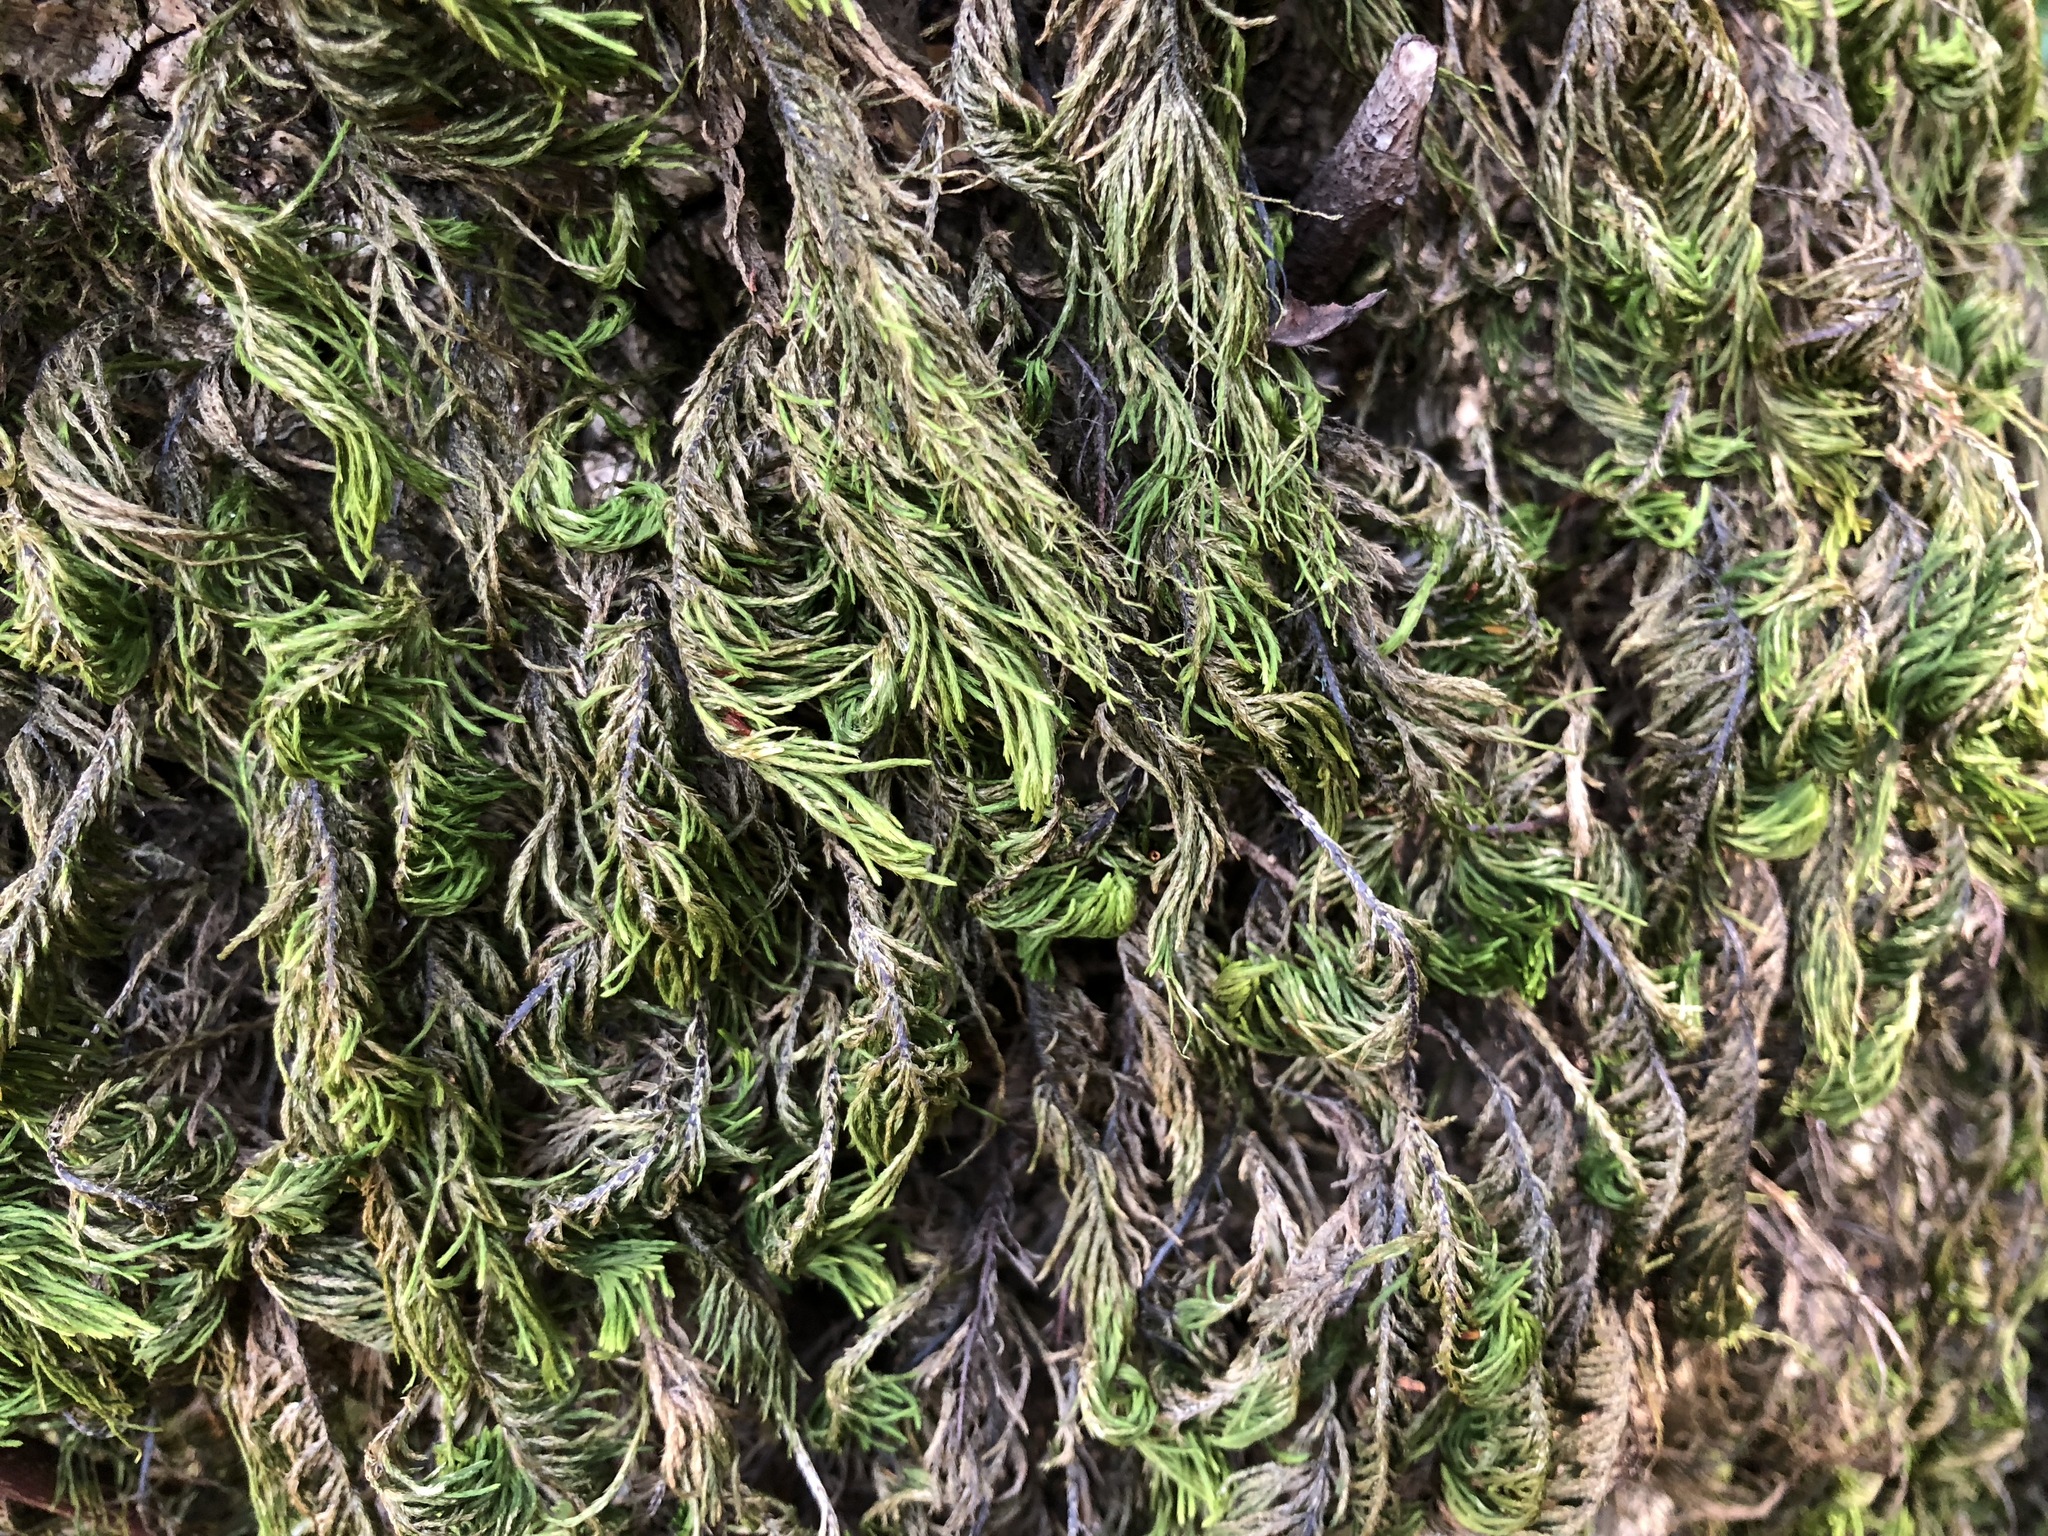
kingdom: Plantae
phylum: Bryophyta
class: Bryopsida
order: Hypnales
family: Cryphaeaceae
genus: Dendroalsia
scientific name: Dendroalsia abietina
